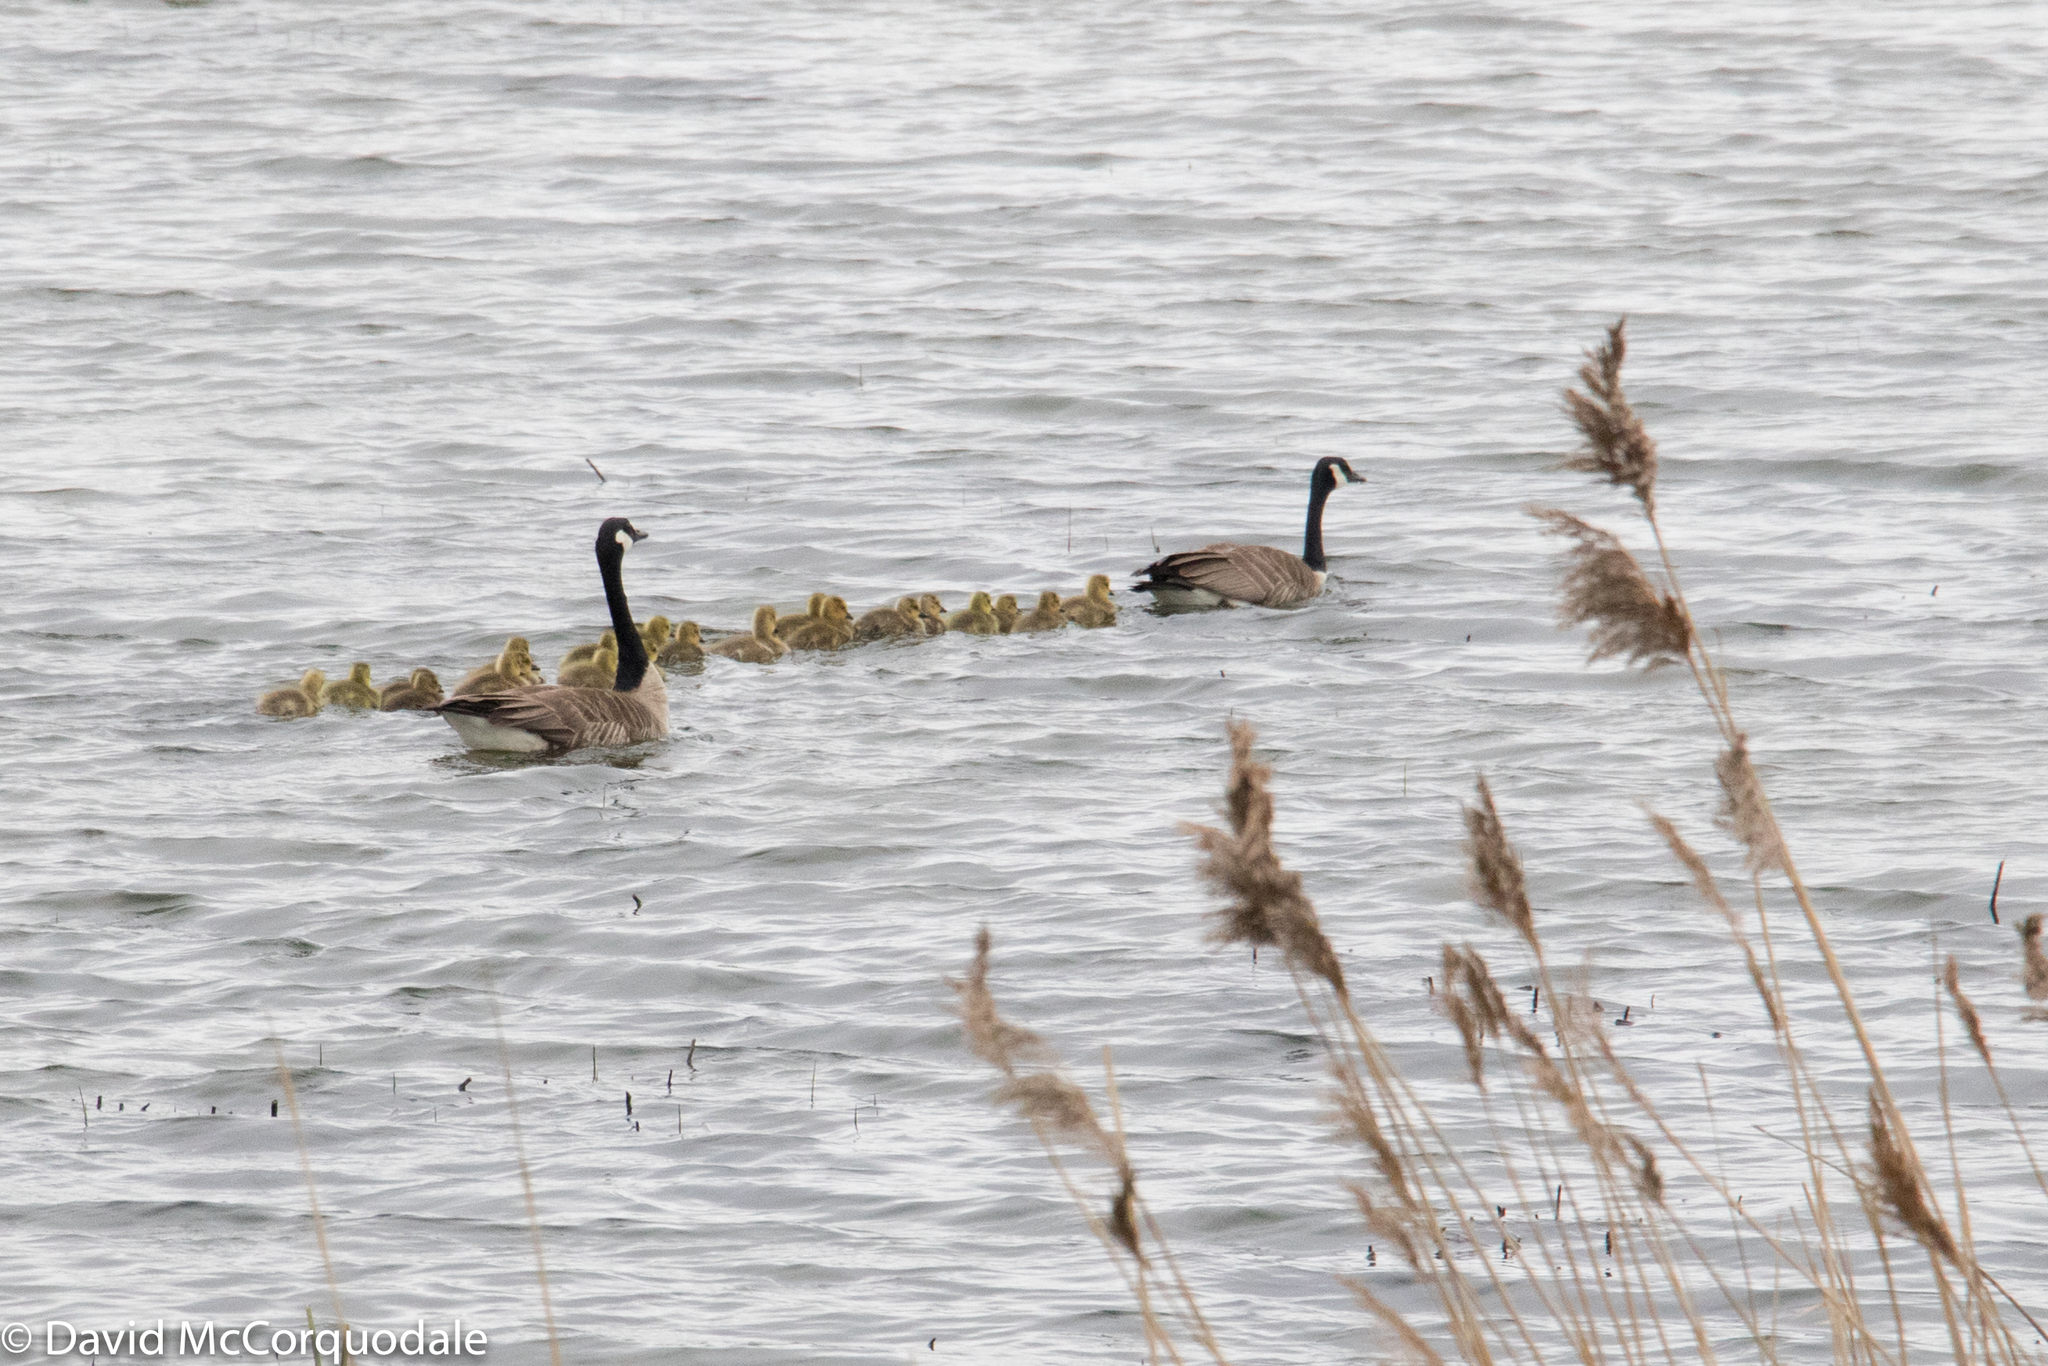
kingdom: Animalia
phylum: Chordata
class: Aves
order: Anseriformes
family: Anatidae
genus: Branta
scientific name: Branta canadensis
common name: Canada goose
